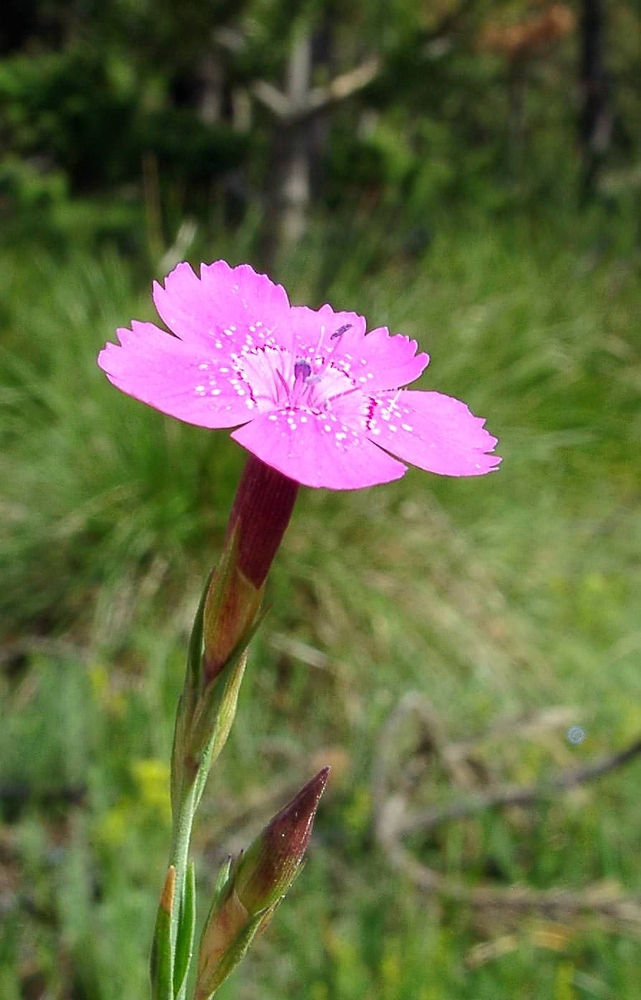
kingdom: Plantae
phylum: Tracheophyta
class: Magnoliopsida
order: Caryophyllales
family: Caryophyllaceae
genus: Dianthus
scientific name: Dianthus deltoides
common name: Maiden pink
